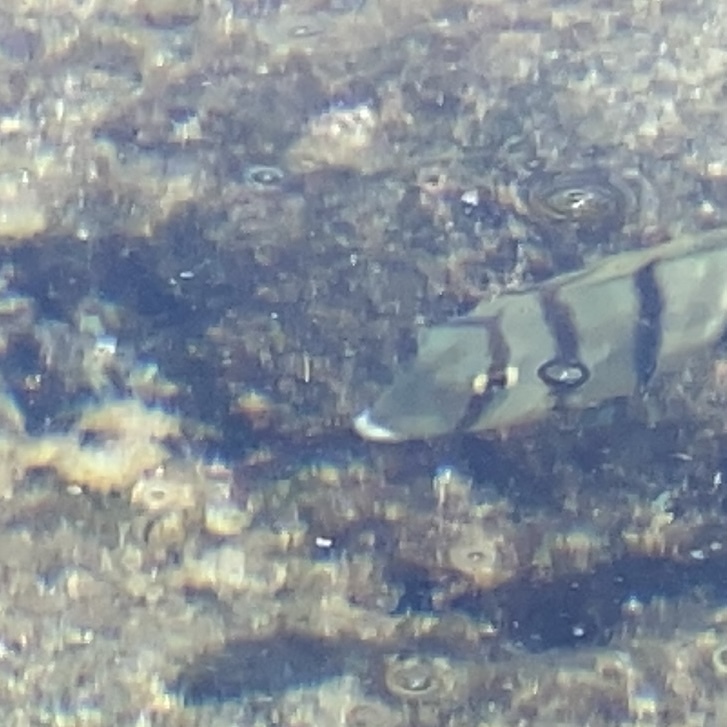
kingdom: Animalia
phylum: Chordata
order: Perciformes
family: Acanthuridae
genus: Acanthurus
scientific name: Acanthurus triostegus
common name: Convict surgeonfish
